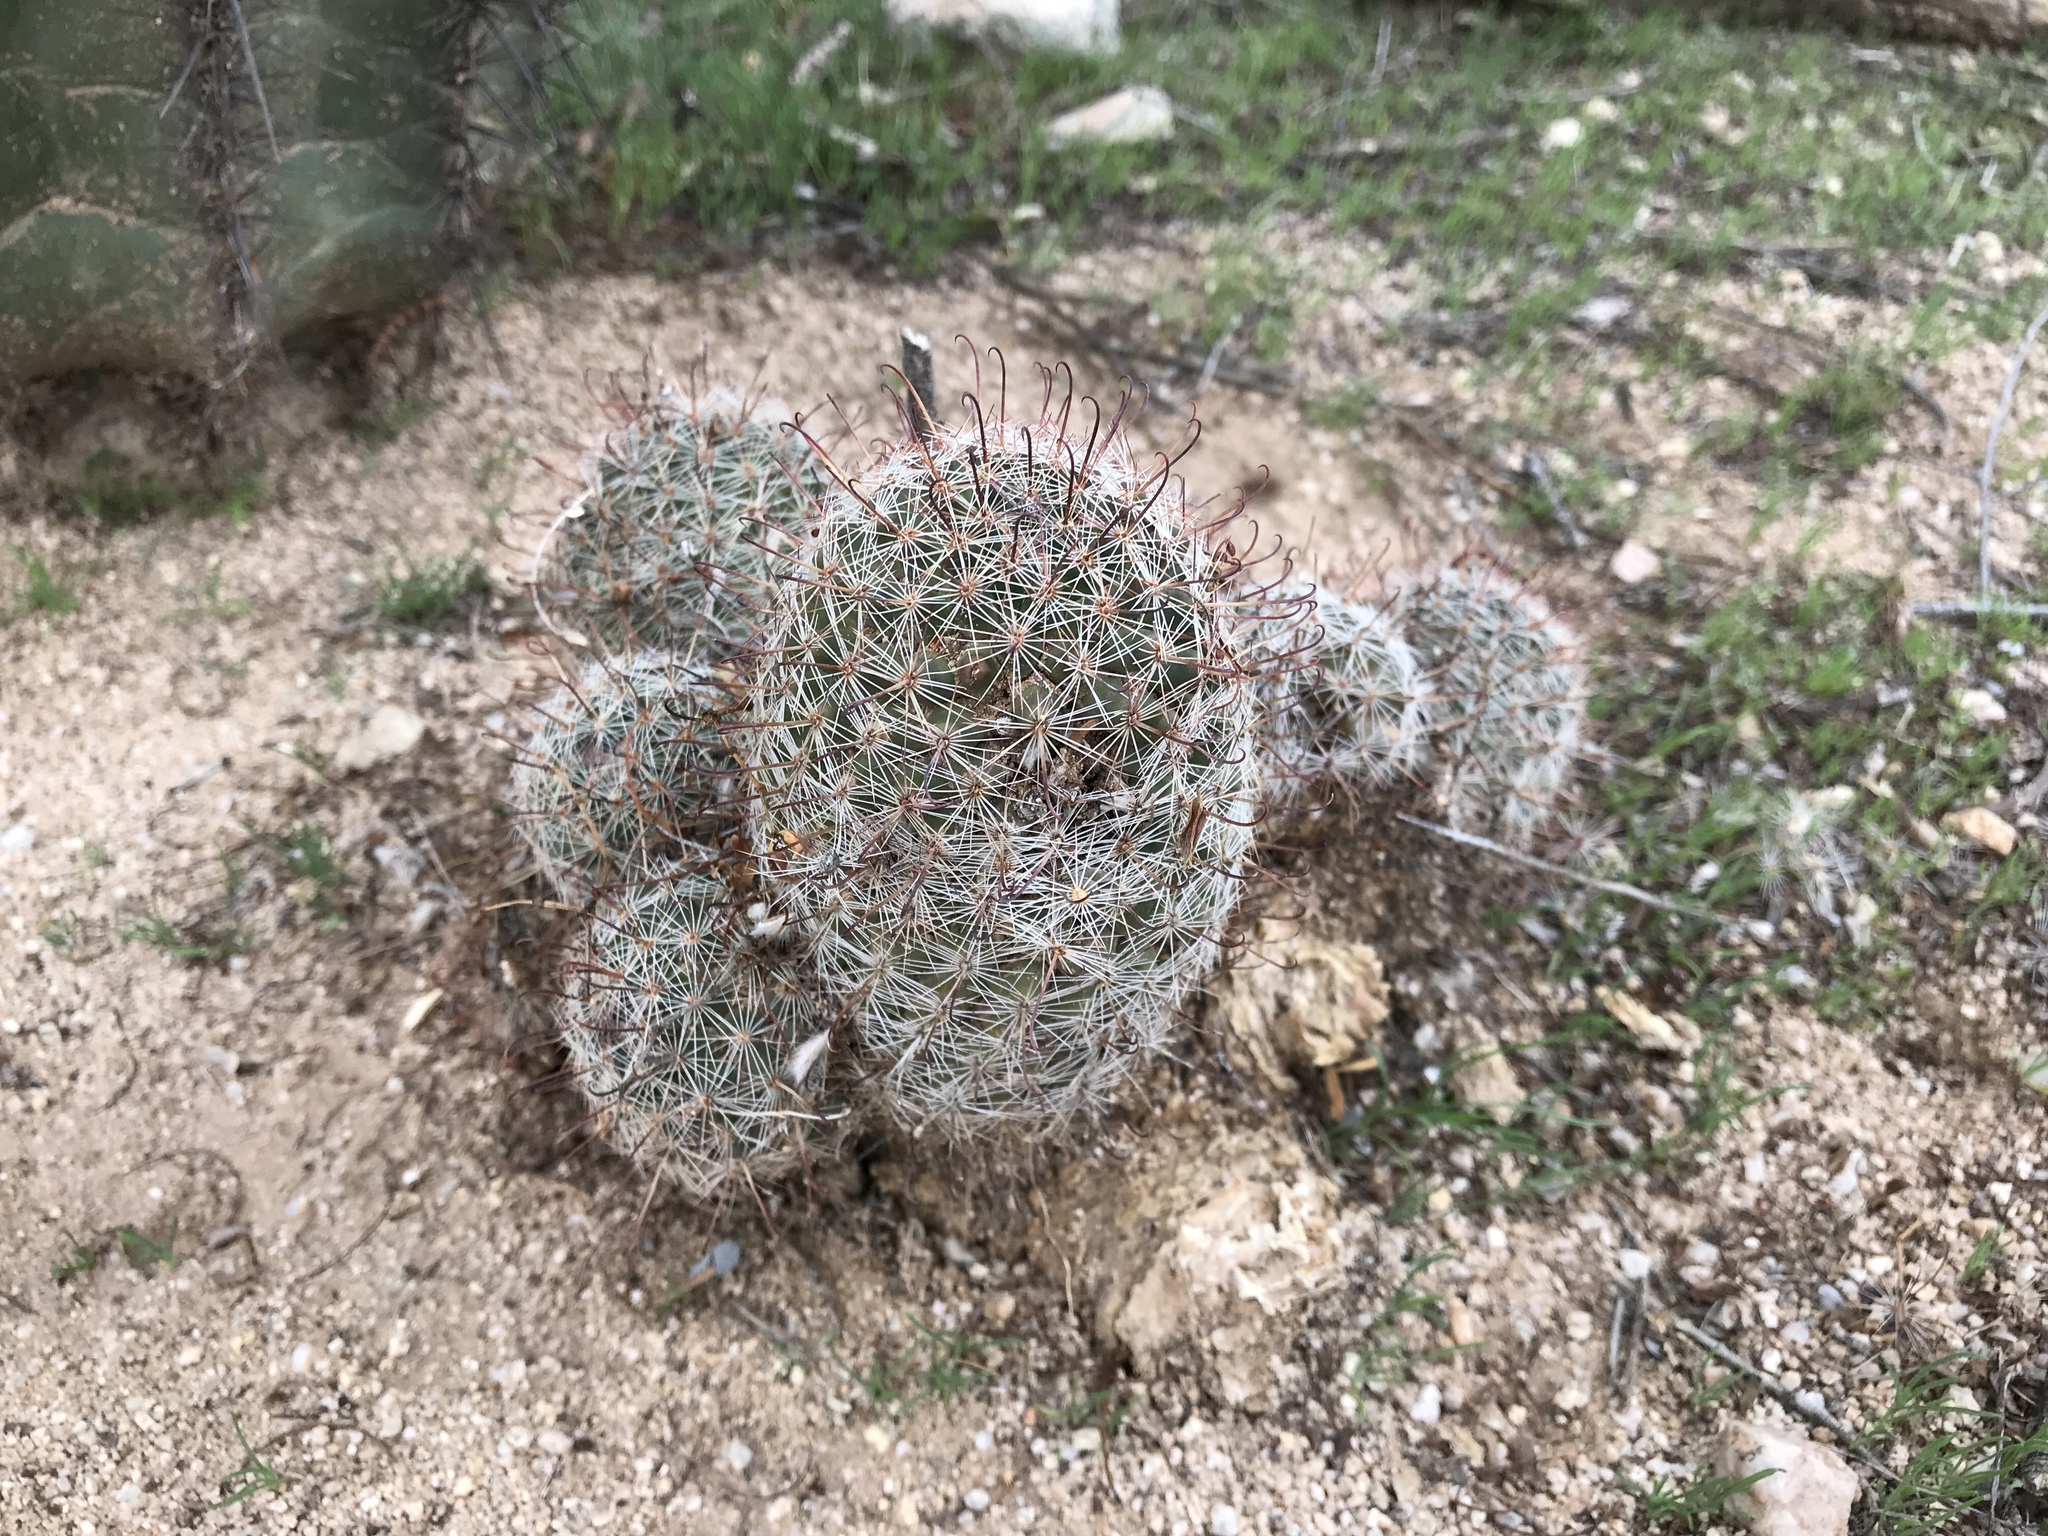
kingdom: Plantae
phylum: Tracheophyta
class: Magnoliopsida
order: Caryophyllales
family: Cactaceae
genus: Cochemiea
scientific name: Cochemiea grahamii
